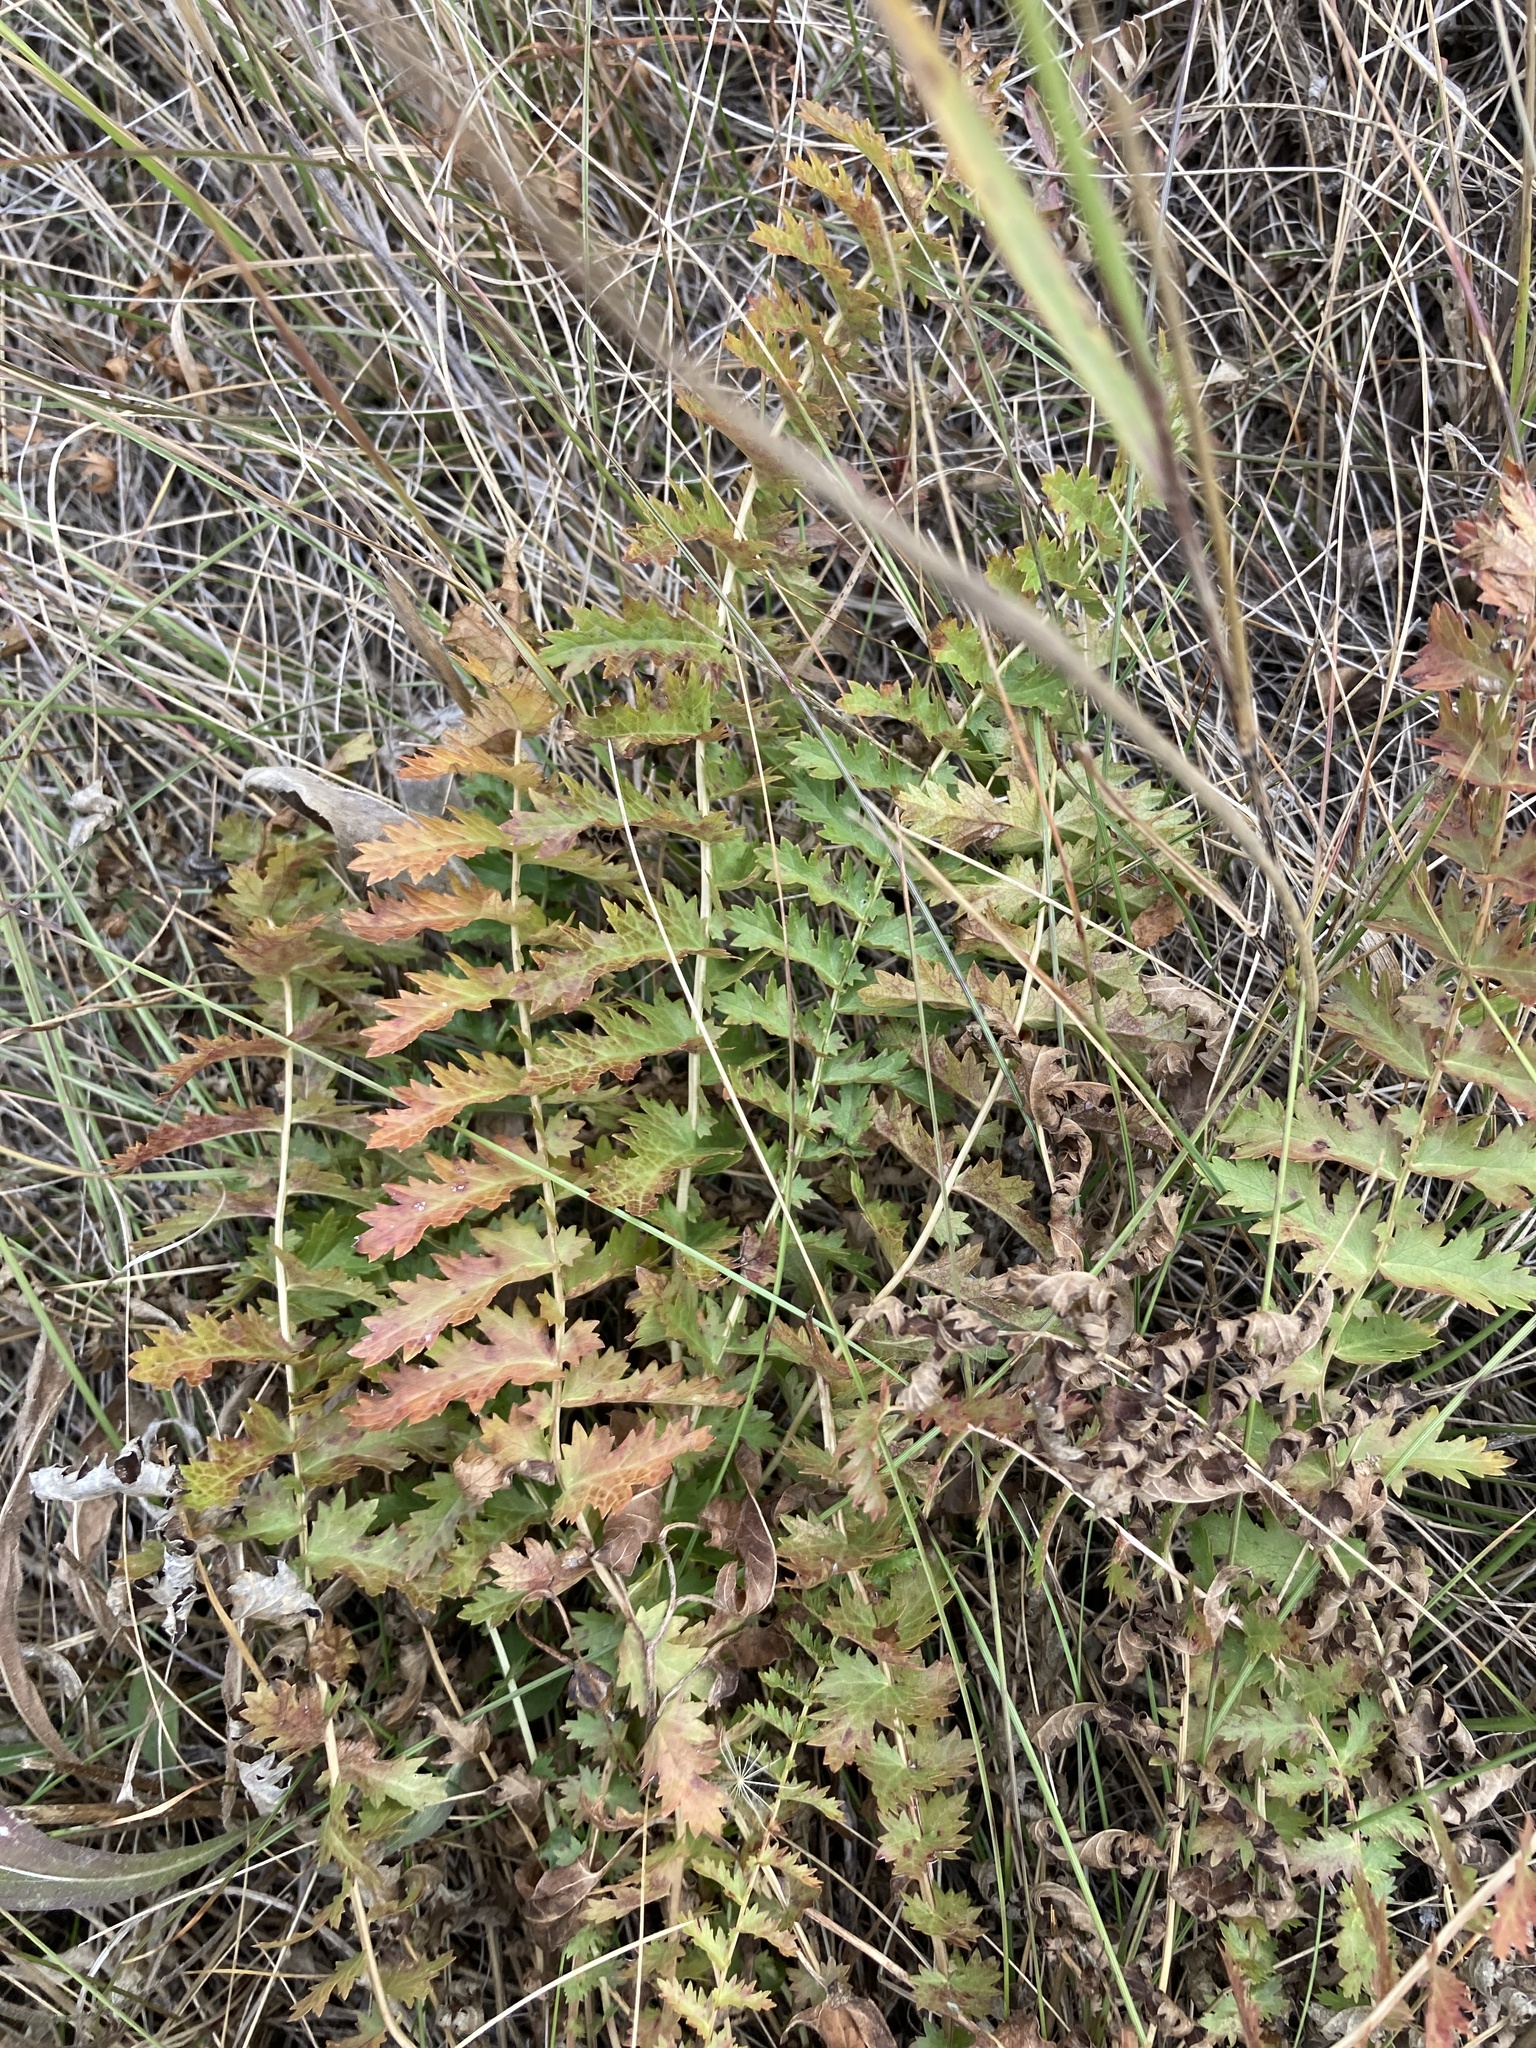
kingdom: Plantae
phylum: Tracheophyta
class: Magnoliopsida
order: Rosales
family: Rosaceae
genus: Filipendula
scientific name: Filipendula vulgaris
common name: Dropwort
